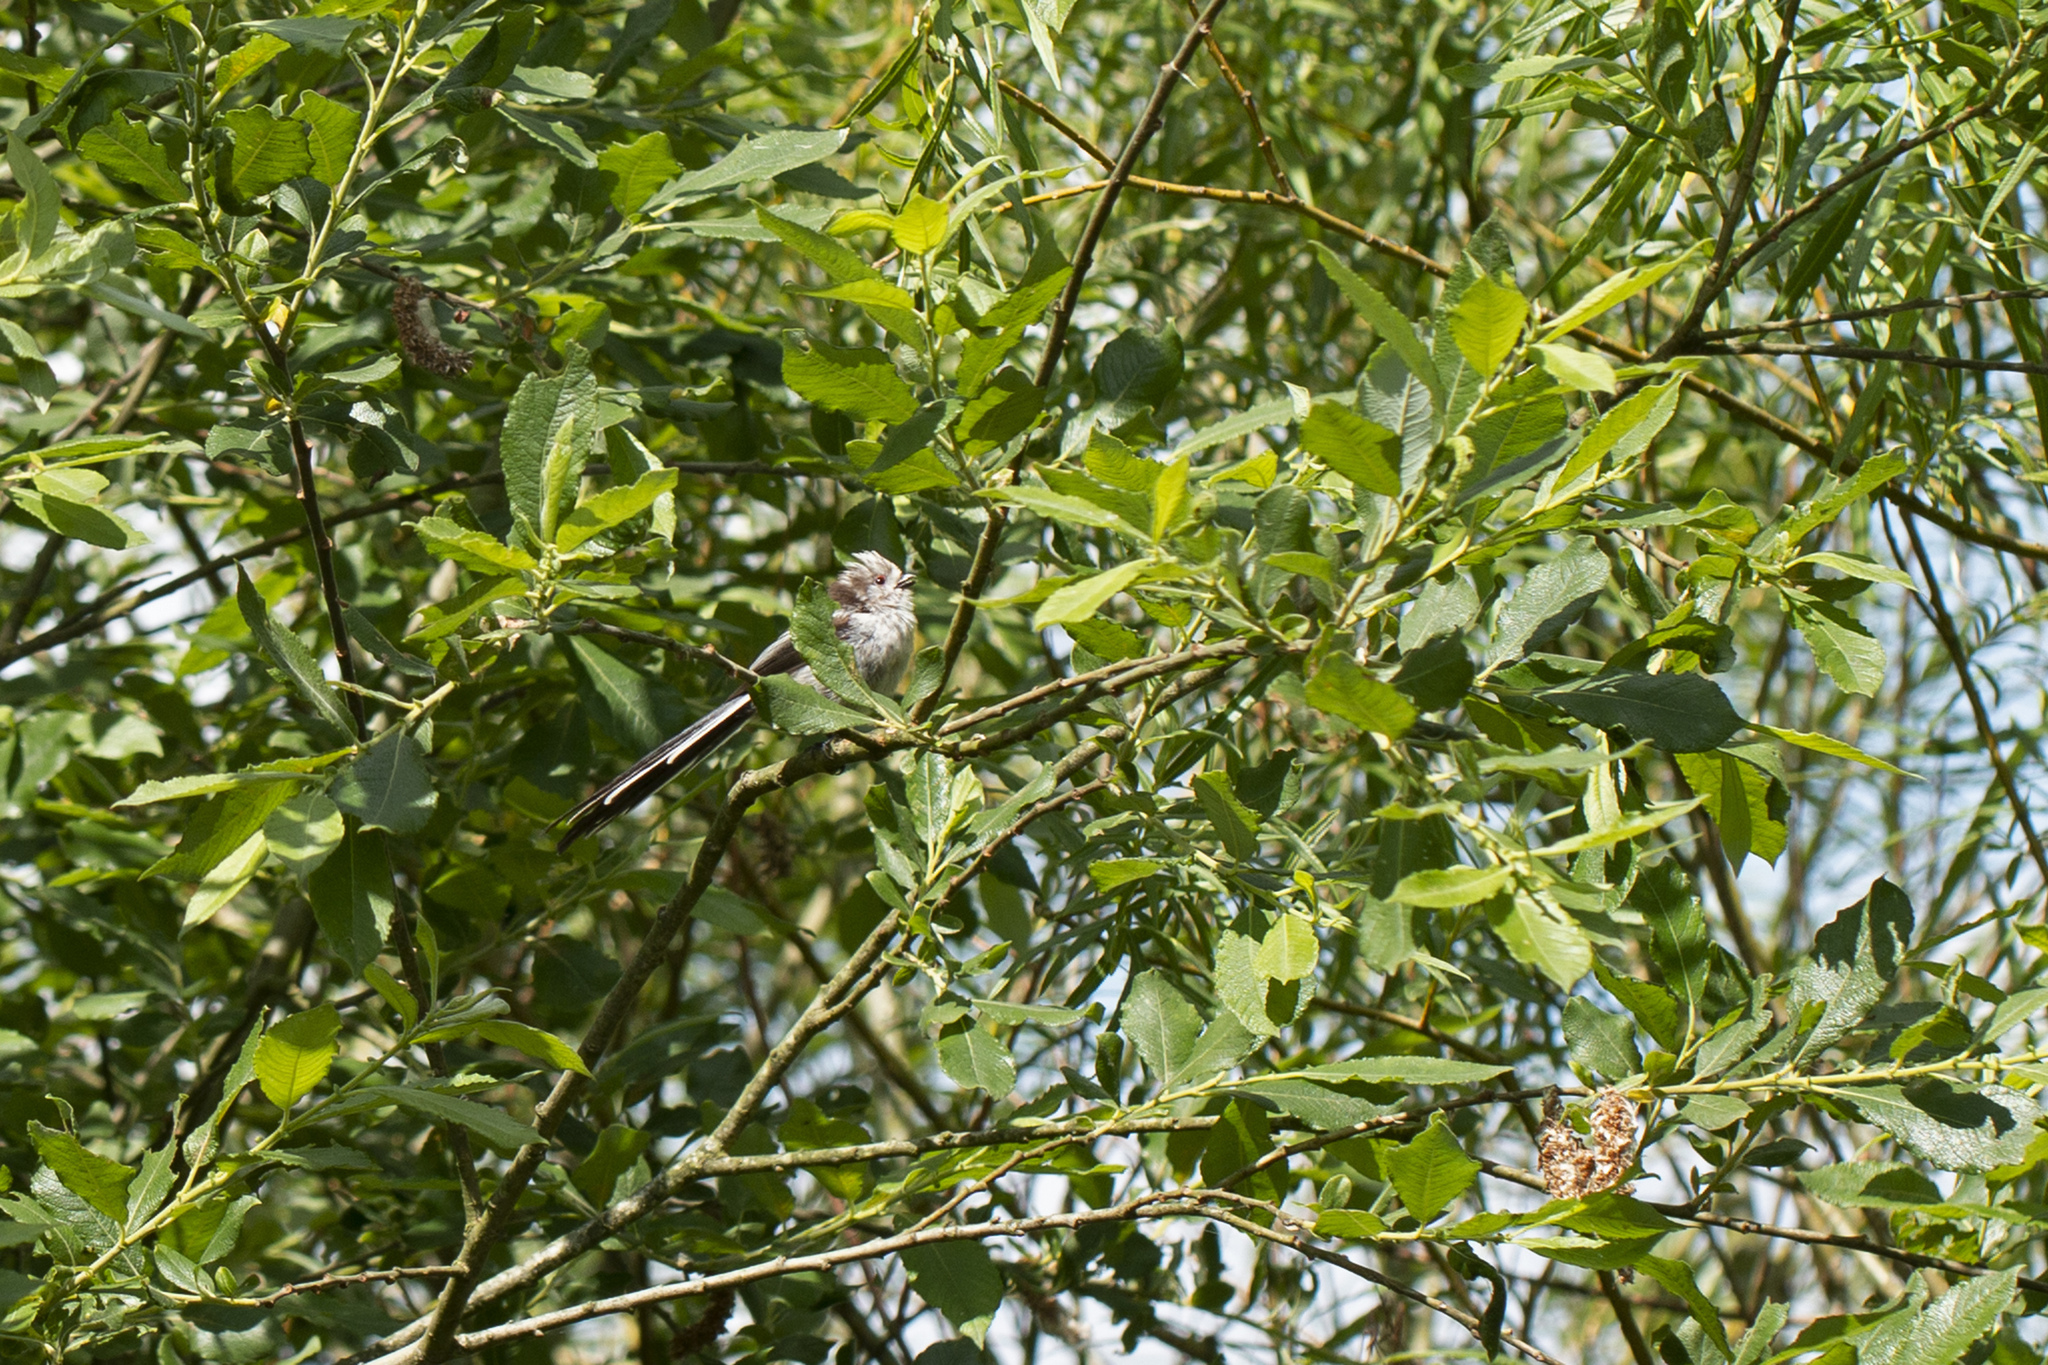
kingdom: Animalia
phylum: Chordata
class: Aves
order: Passeriformes
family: Aegithalidae
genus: Aegithalos
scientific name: Aegithalos caudatus
